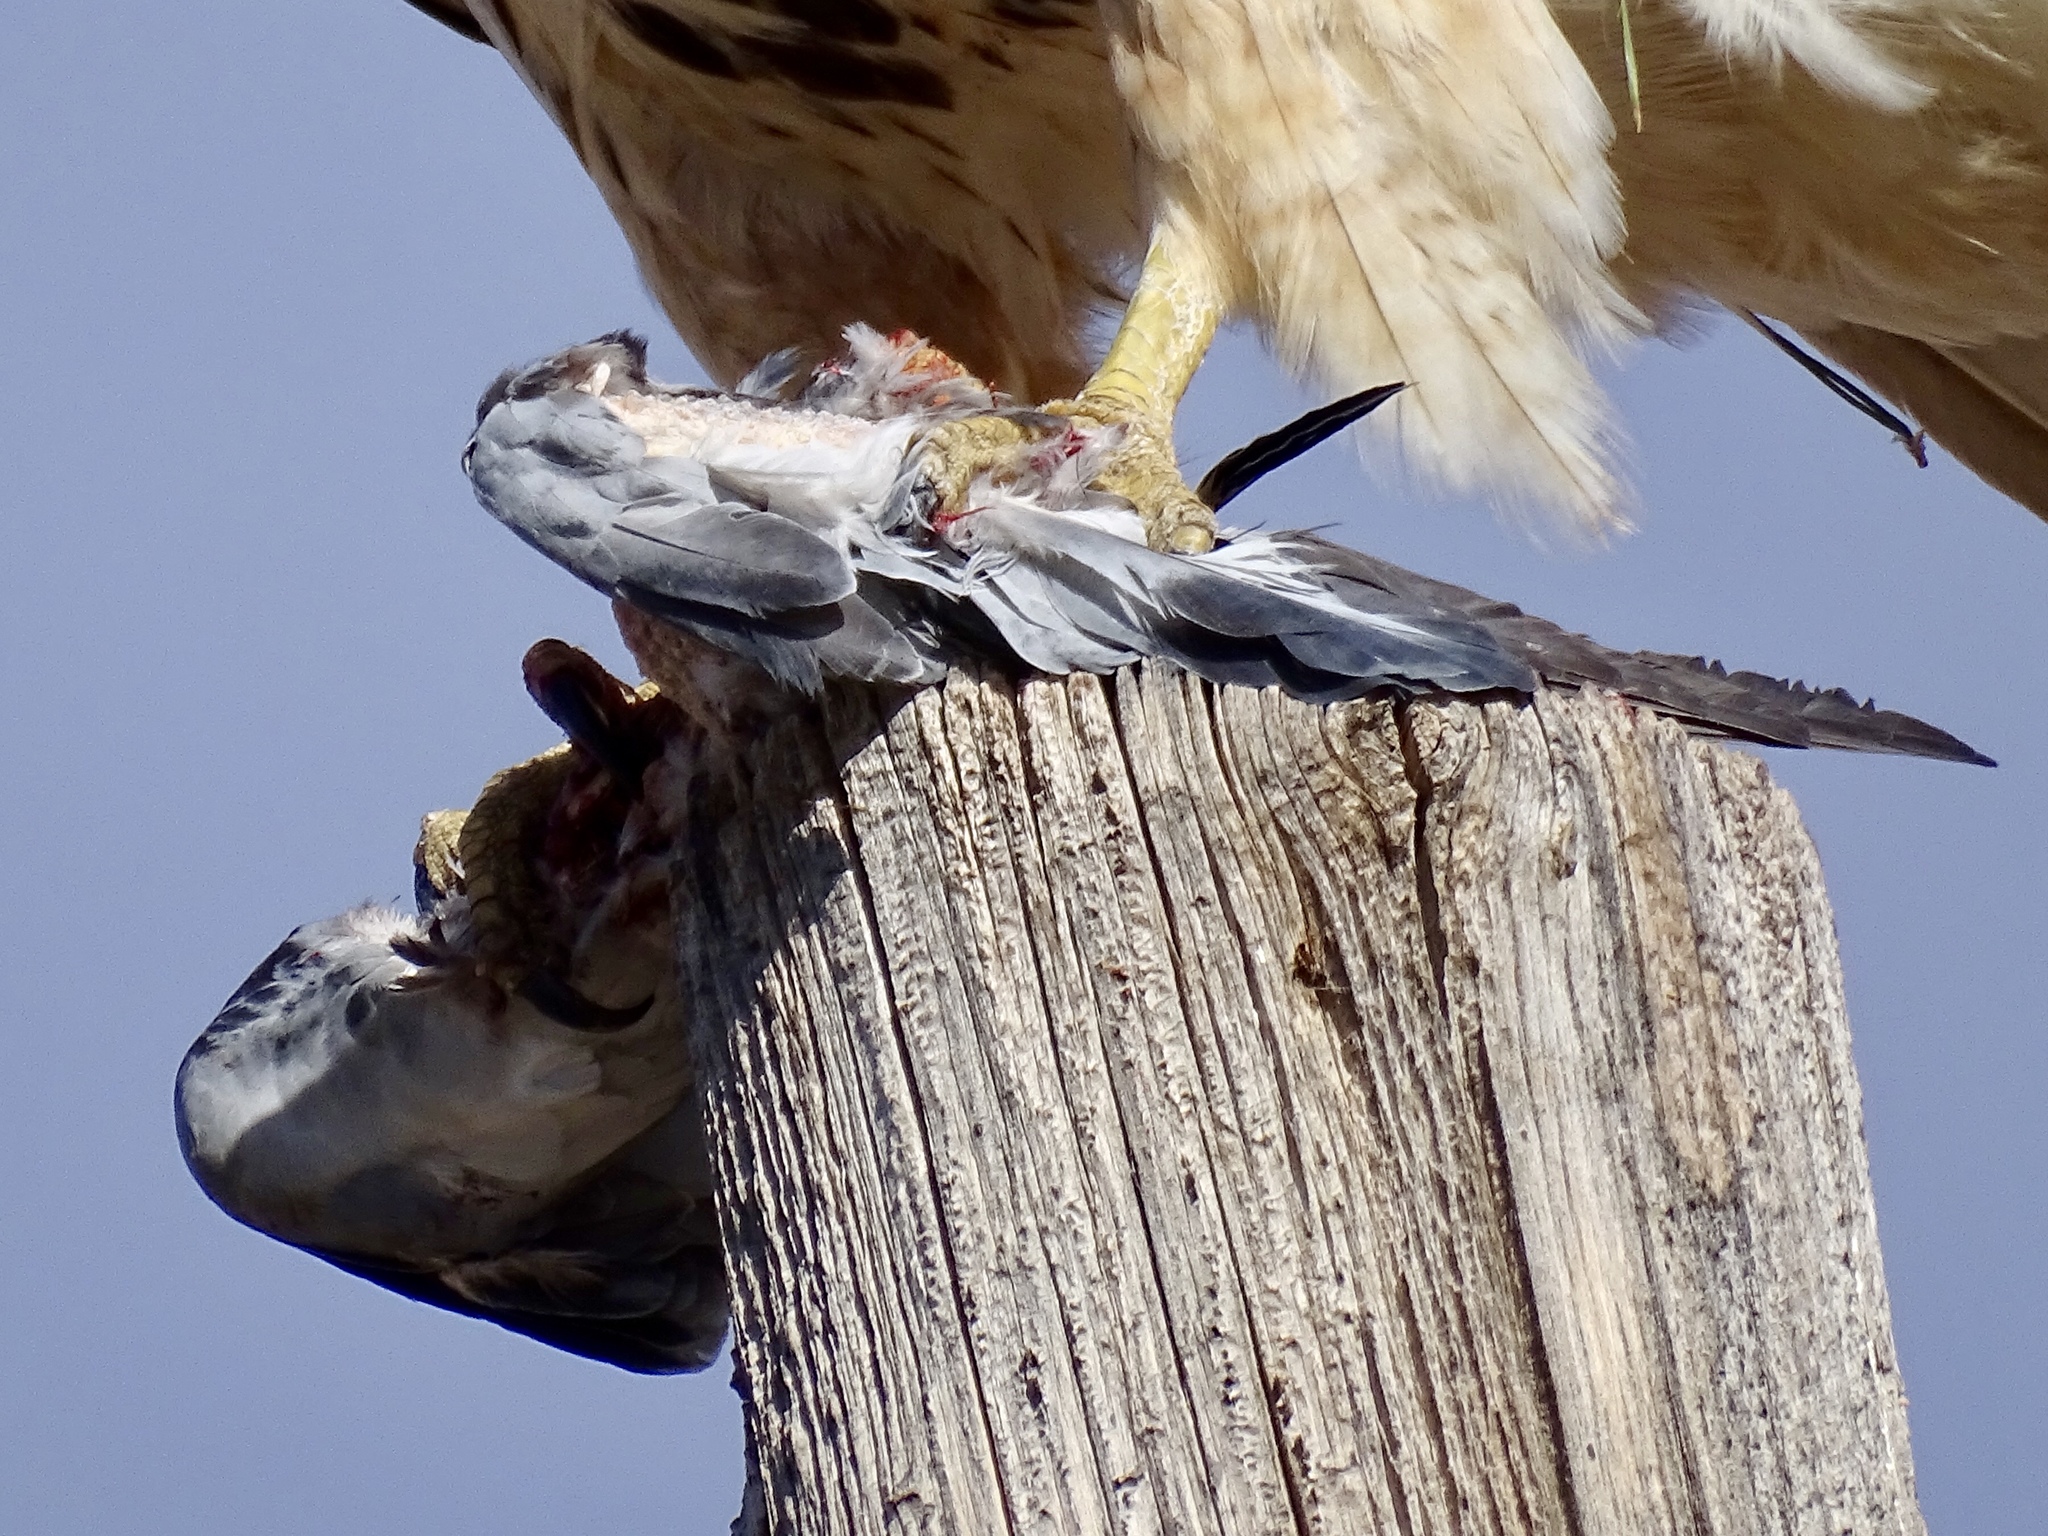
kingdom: Animalia
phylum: Chordata
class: Aves
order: Columbiformes
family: Columbidae
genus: Columba
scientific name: Columba livia
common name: Rock pigeon
